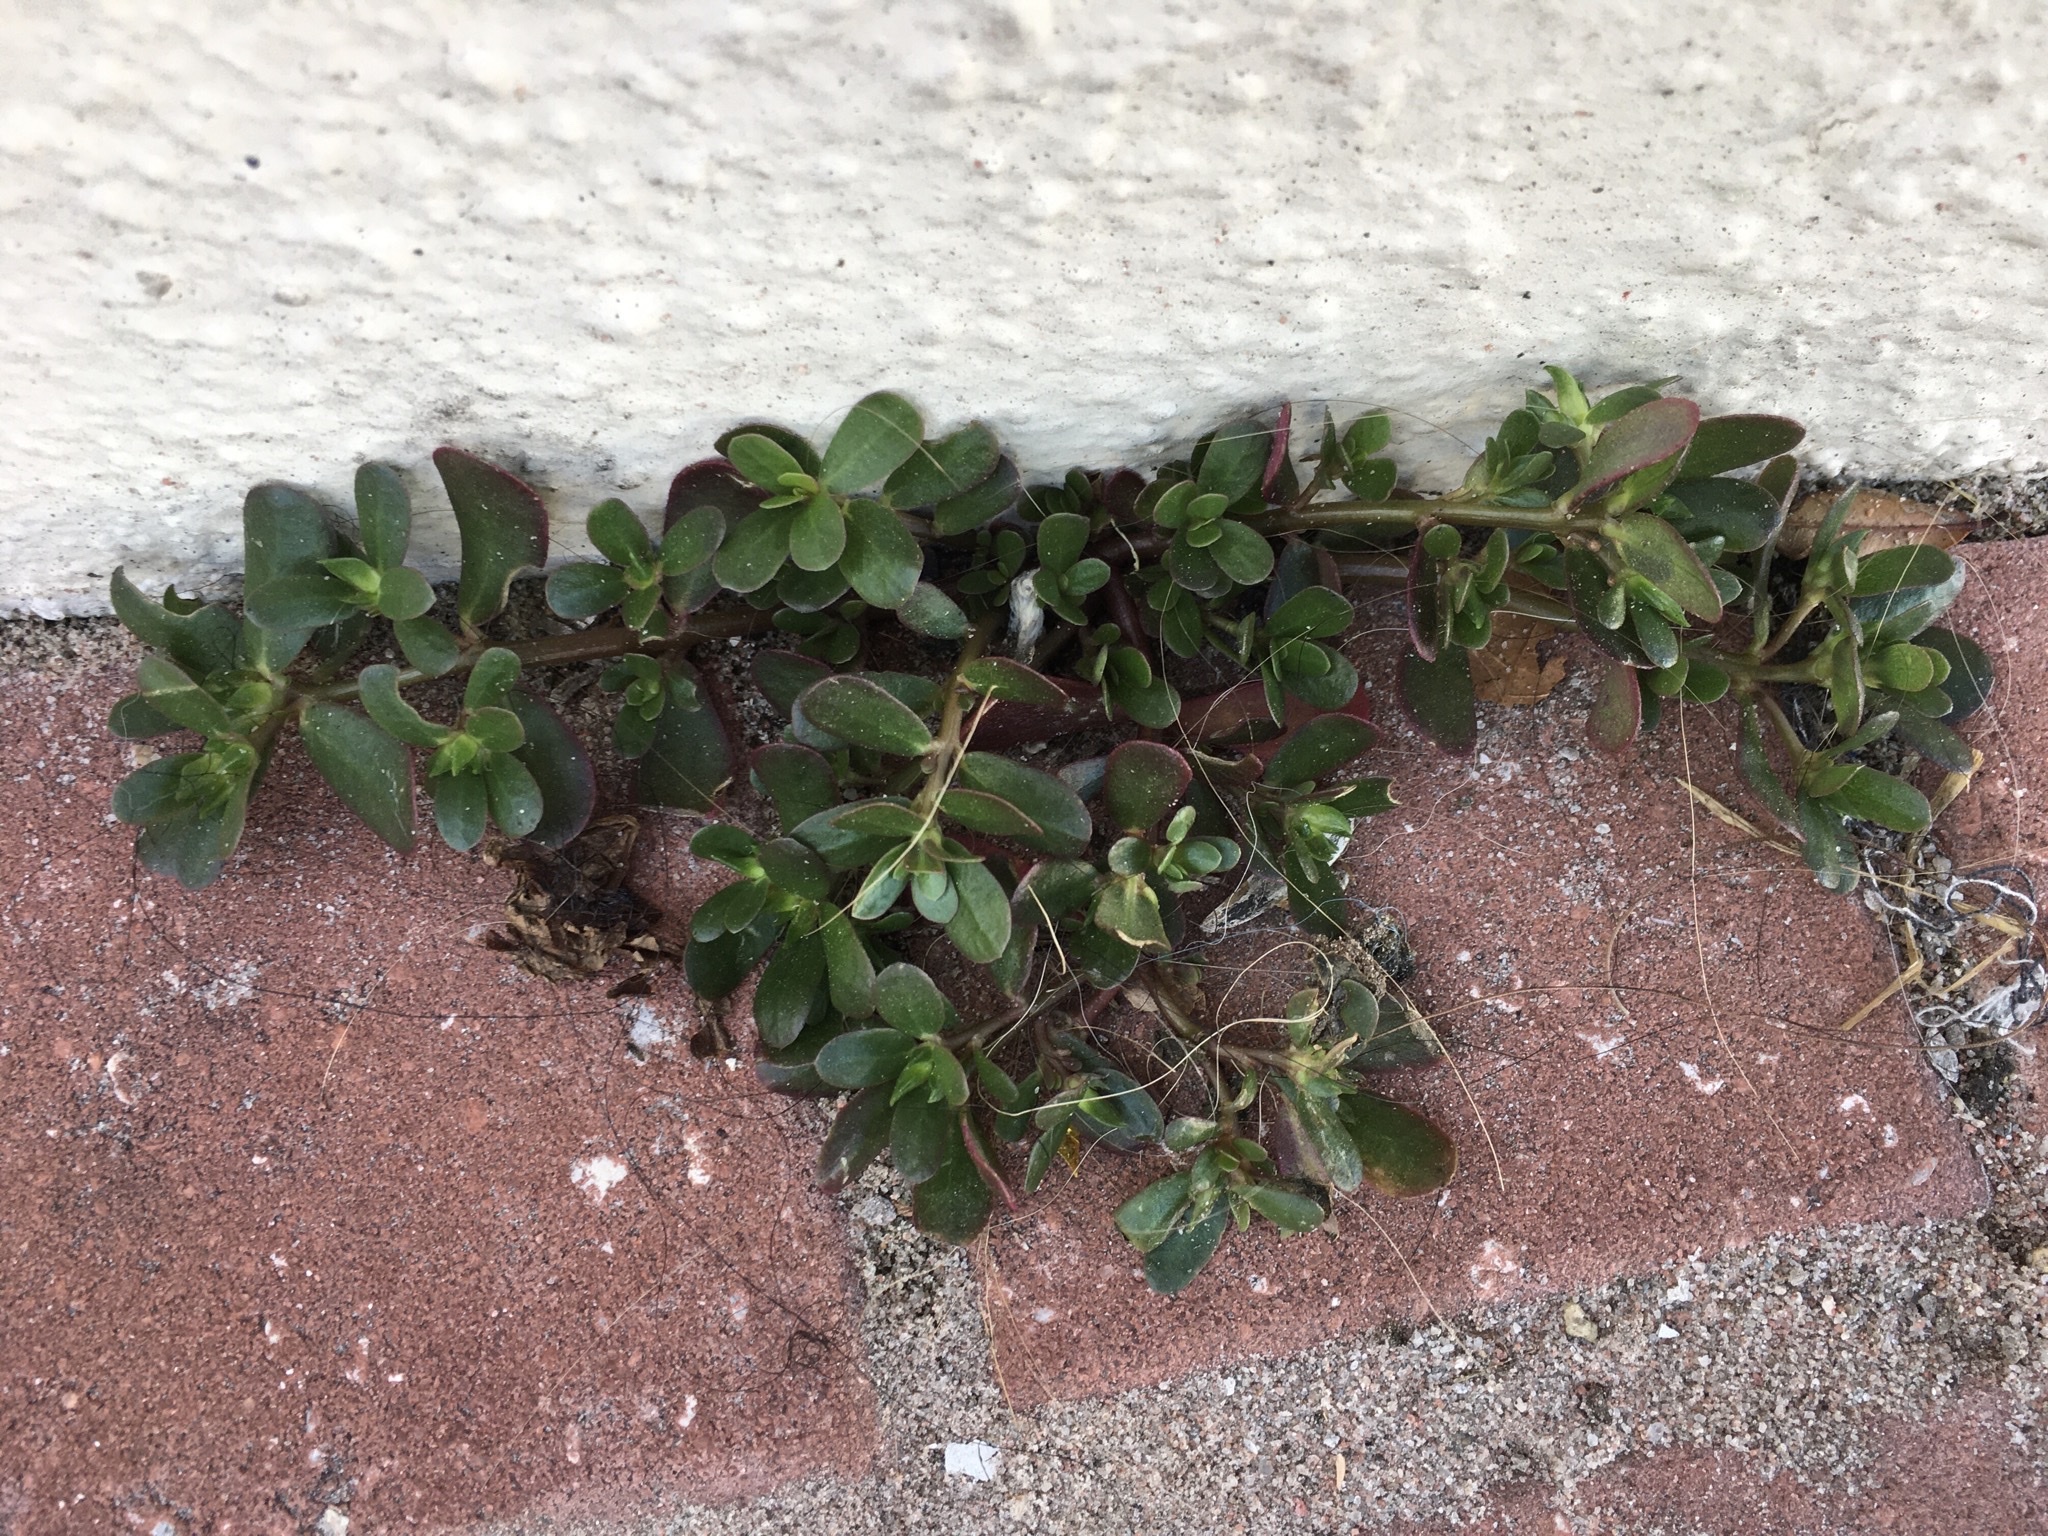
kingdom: Plantae
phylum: Tracheophyta
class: Magnoliopsida
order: Caryophyllales
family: Portulacaceae
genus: Portulaca
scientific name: Portulaca oleracea
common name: Common purslane
